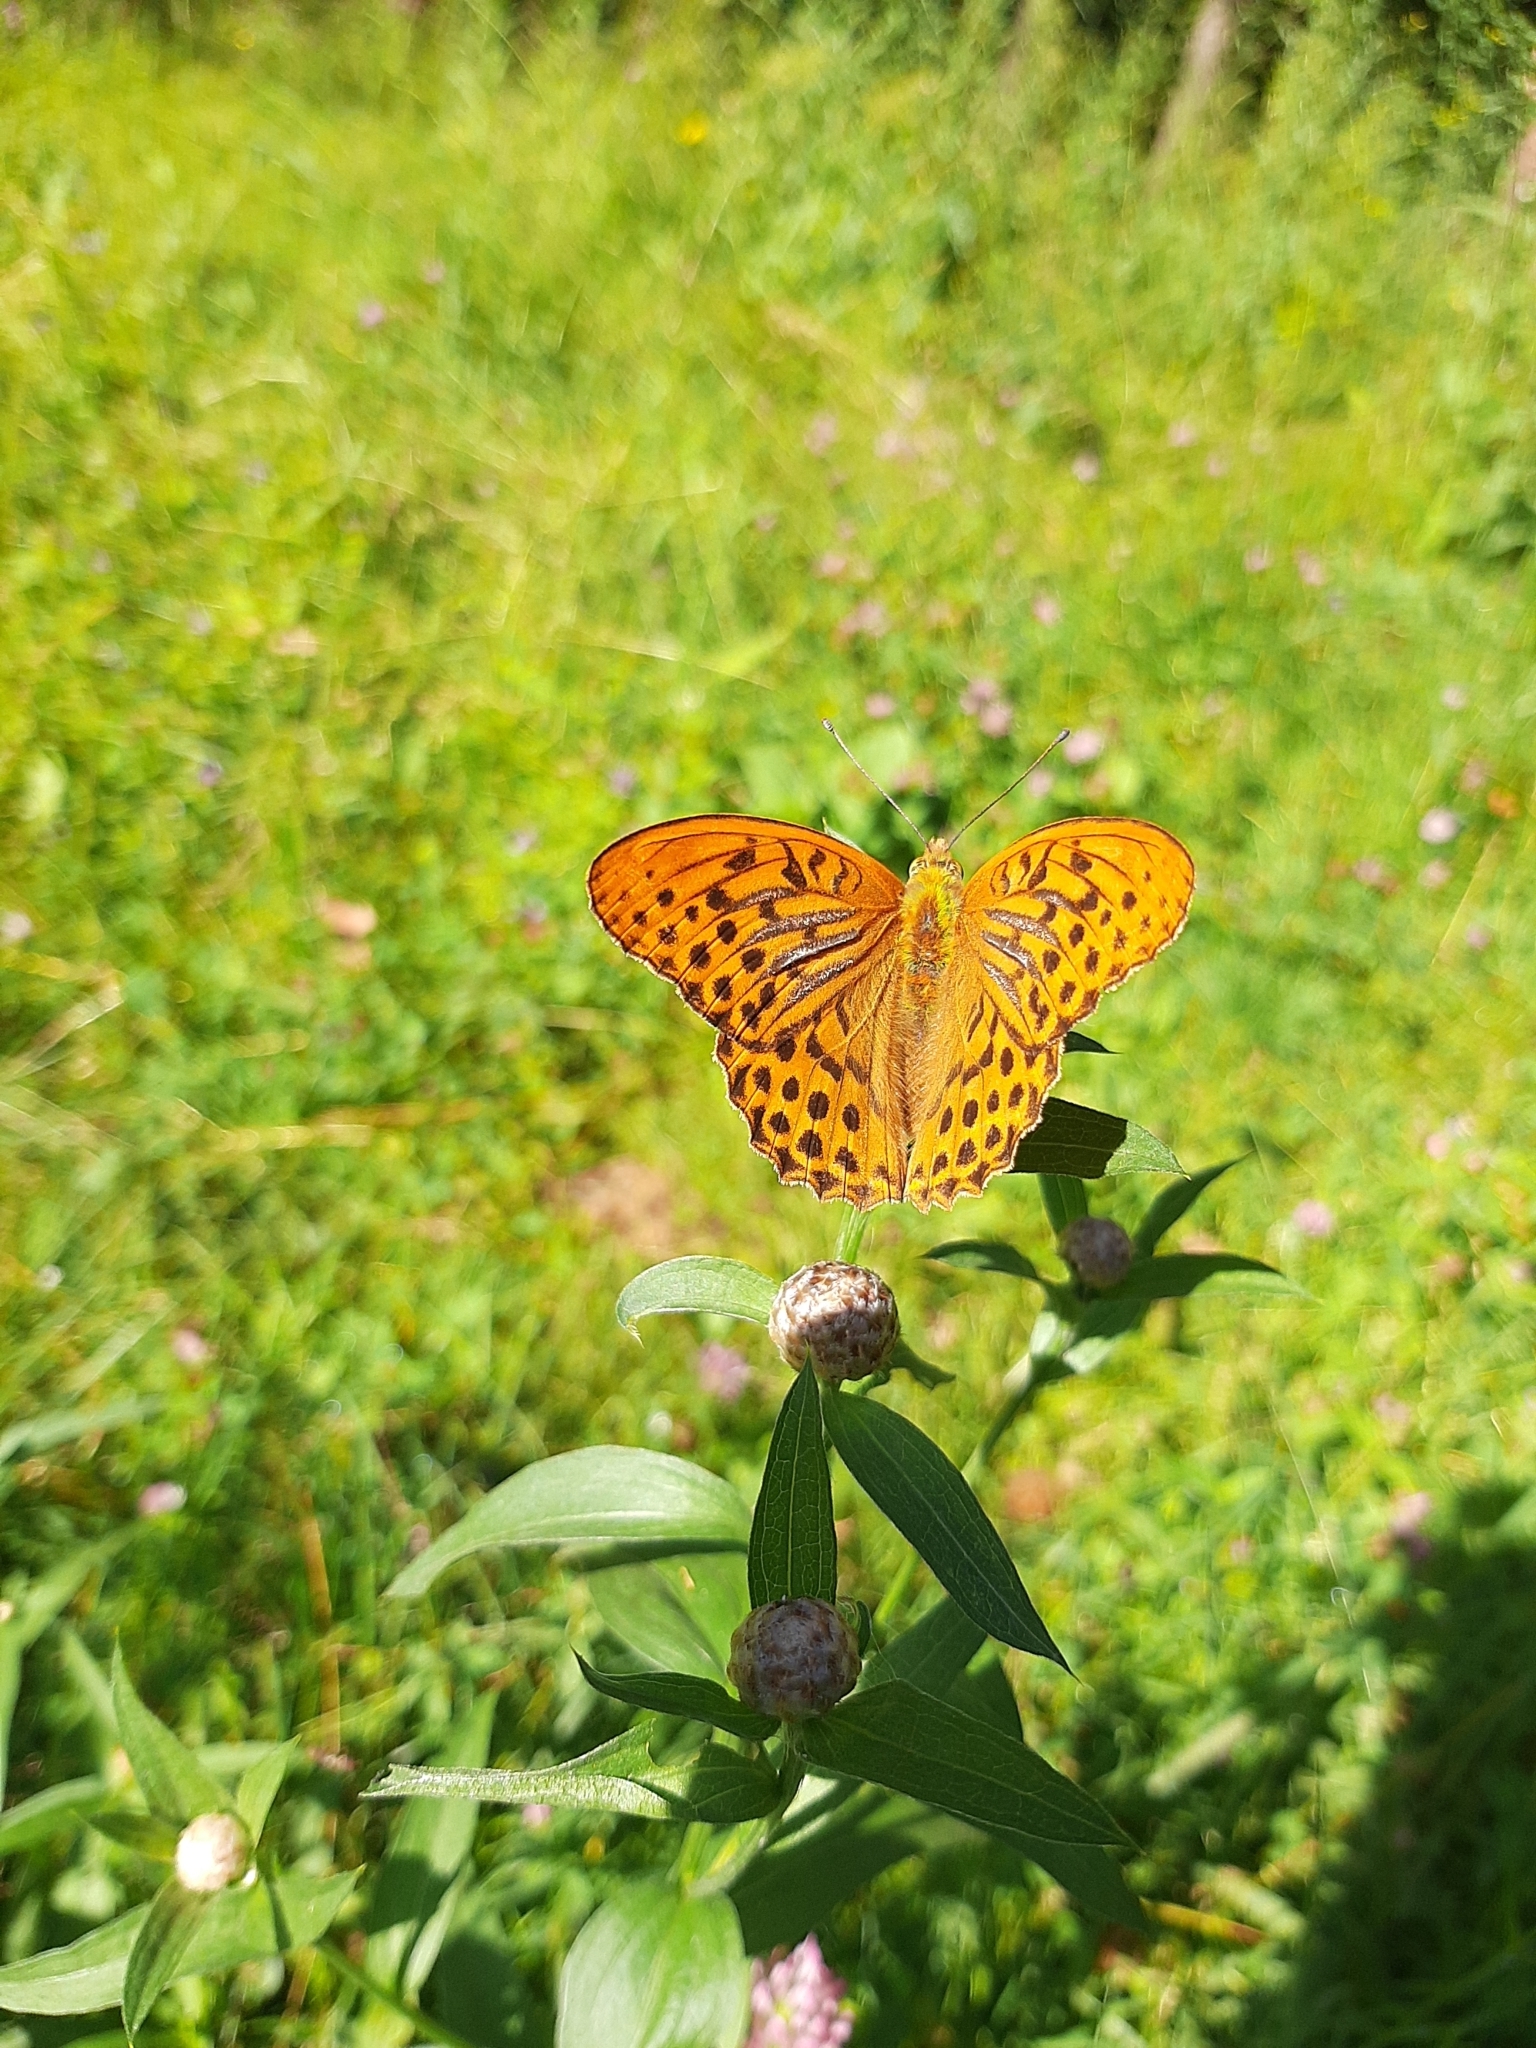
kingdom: Animalia
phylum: Arthropoda
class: Insecta
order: Lepidoptera
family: Nymphalidae
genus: Argynnis
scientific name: Argynnis paphia
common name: Silver-washed fritillary
